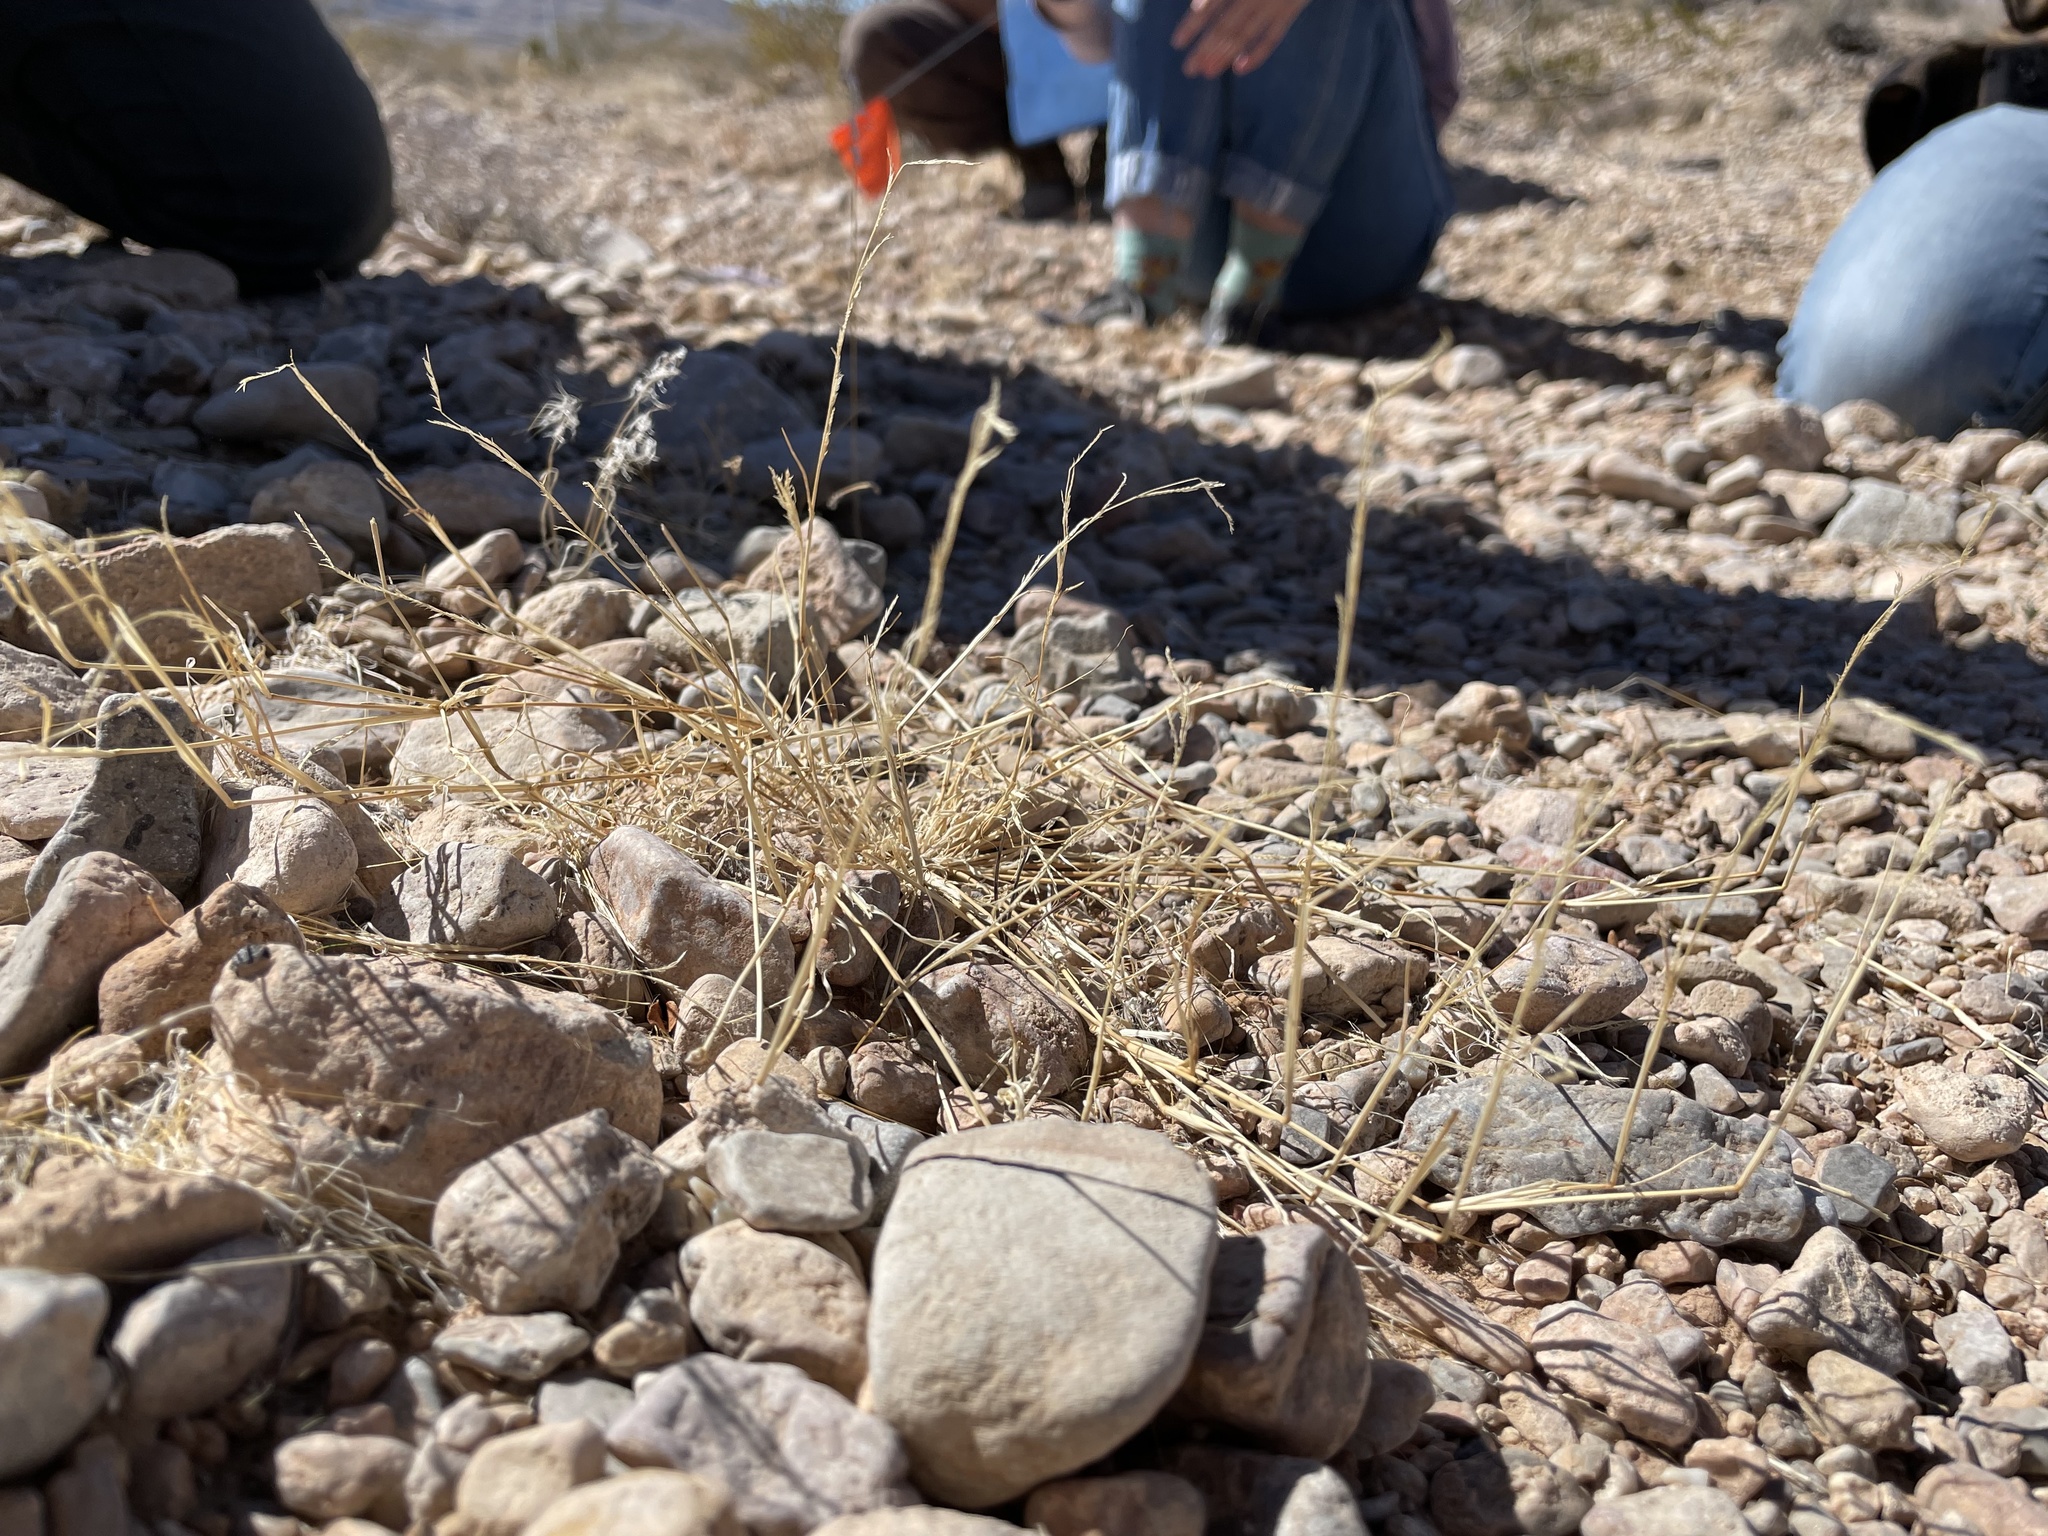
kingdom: Plantae
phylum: Tracheophyta
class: Liliopsida
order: Poales
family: Poaceae
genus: Bouteloua
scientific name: Bouteloua barbata
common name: Six-weeks grama
